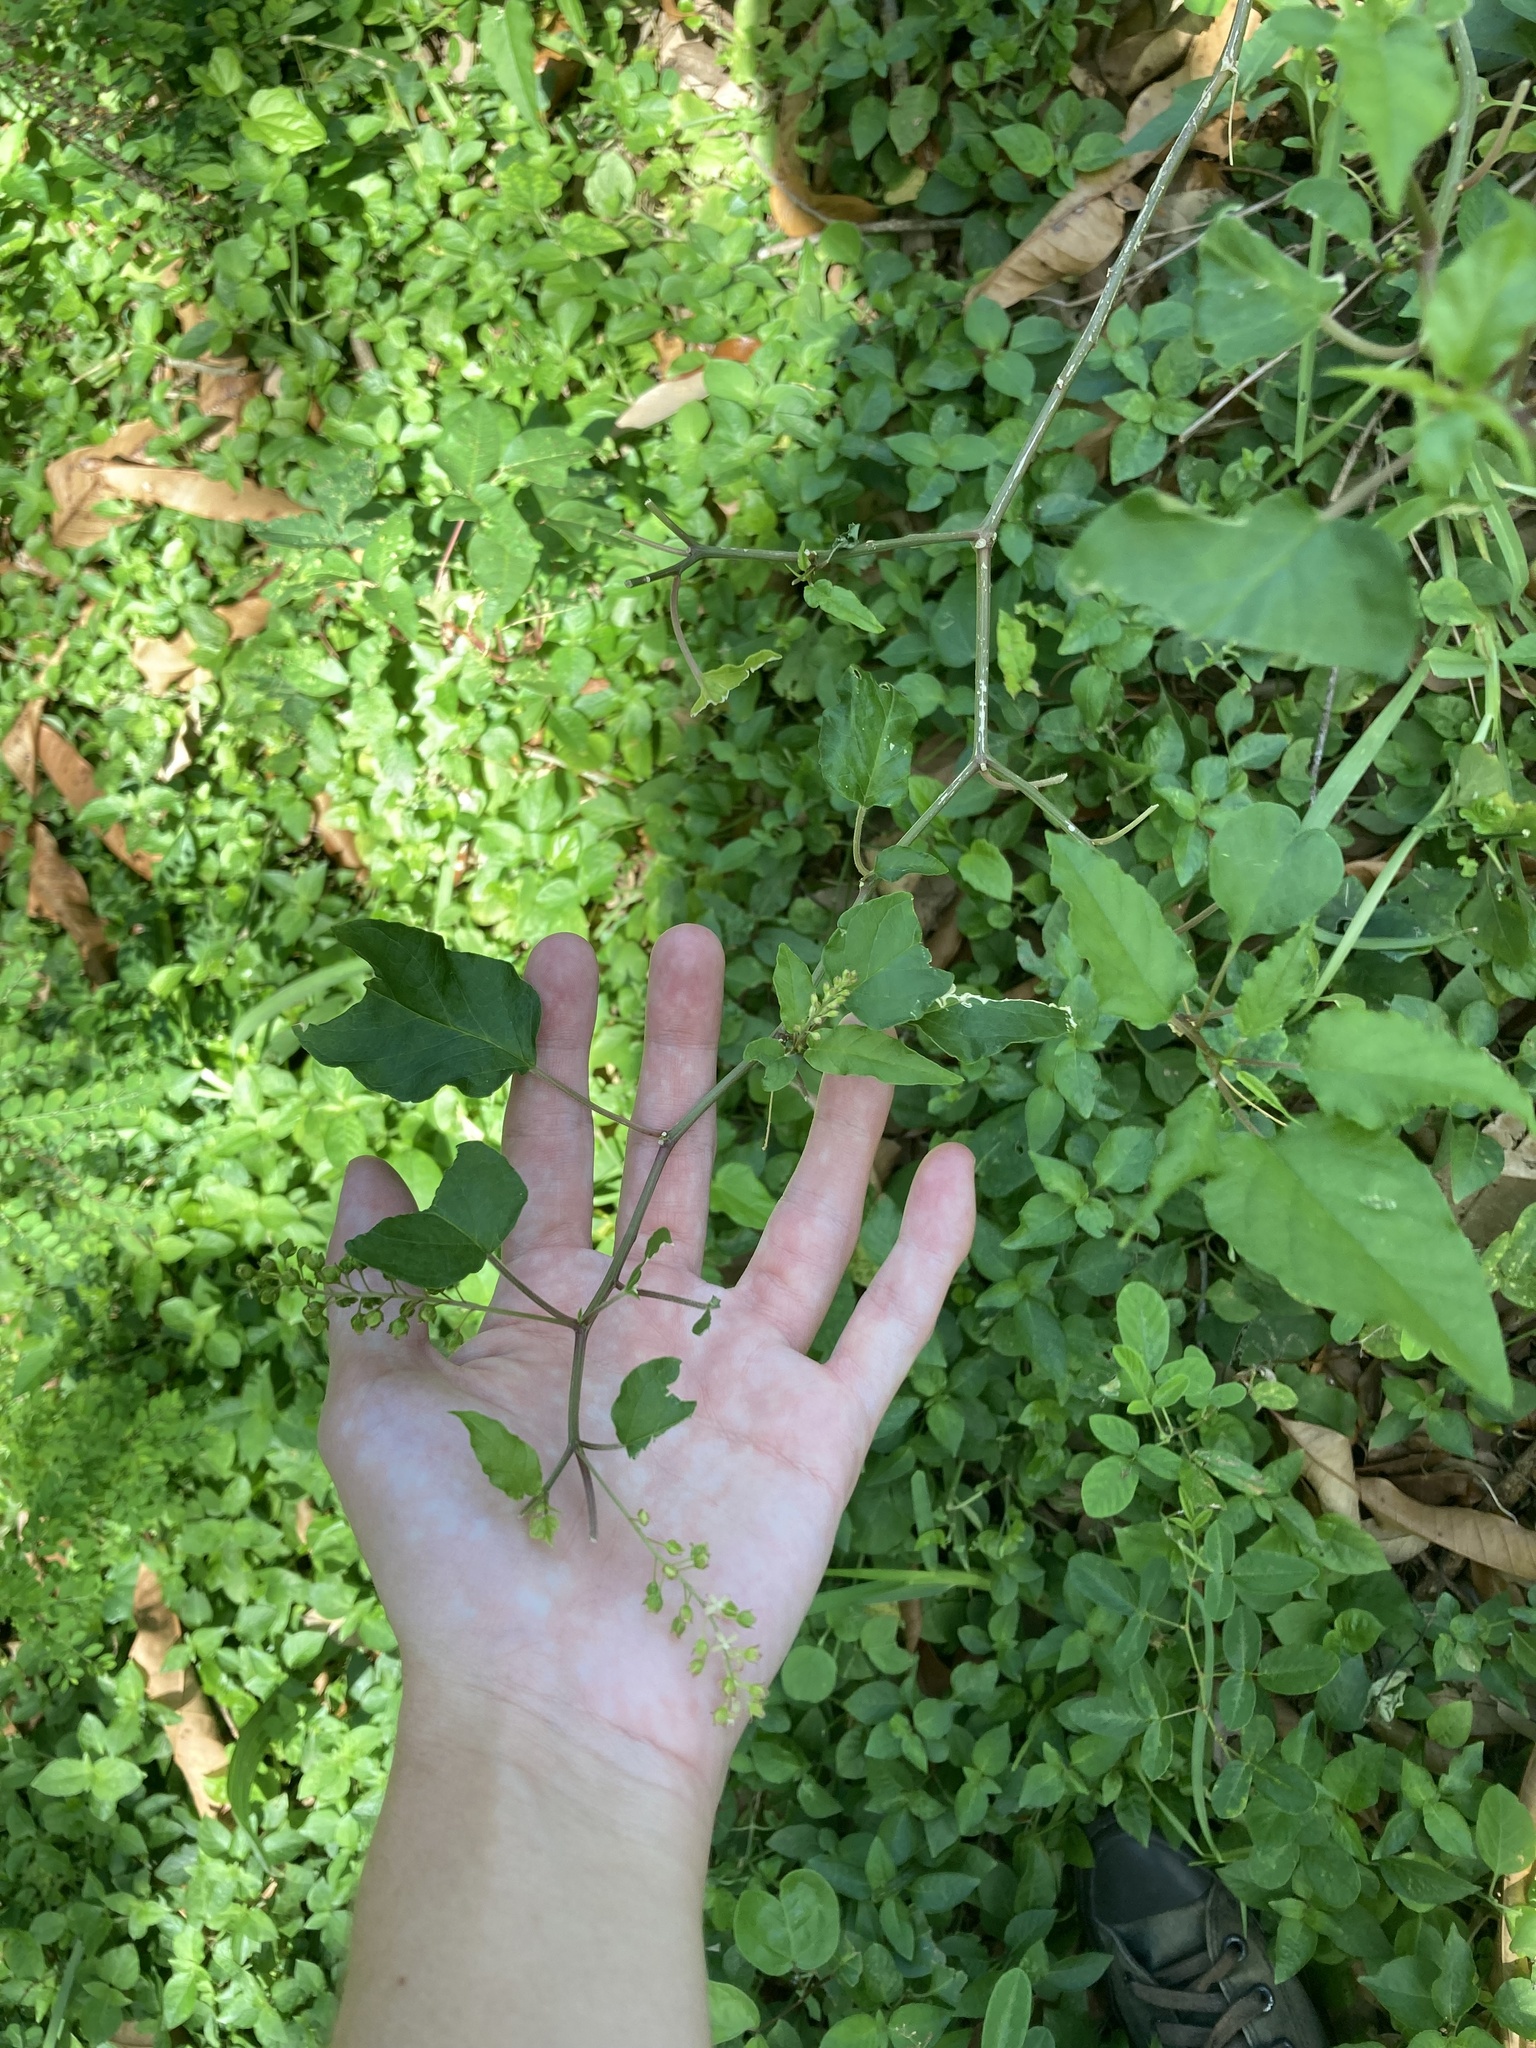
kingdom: Plantae
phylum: Tracheophyta
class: Magnoliopsida
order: Caryophyllales
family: Phytolaccaceae
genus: Rivina
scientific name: Rivina humilis
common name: Rougeplant
